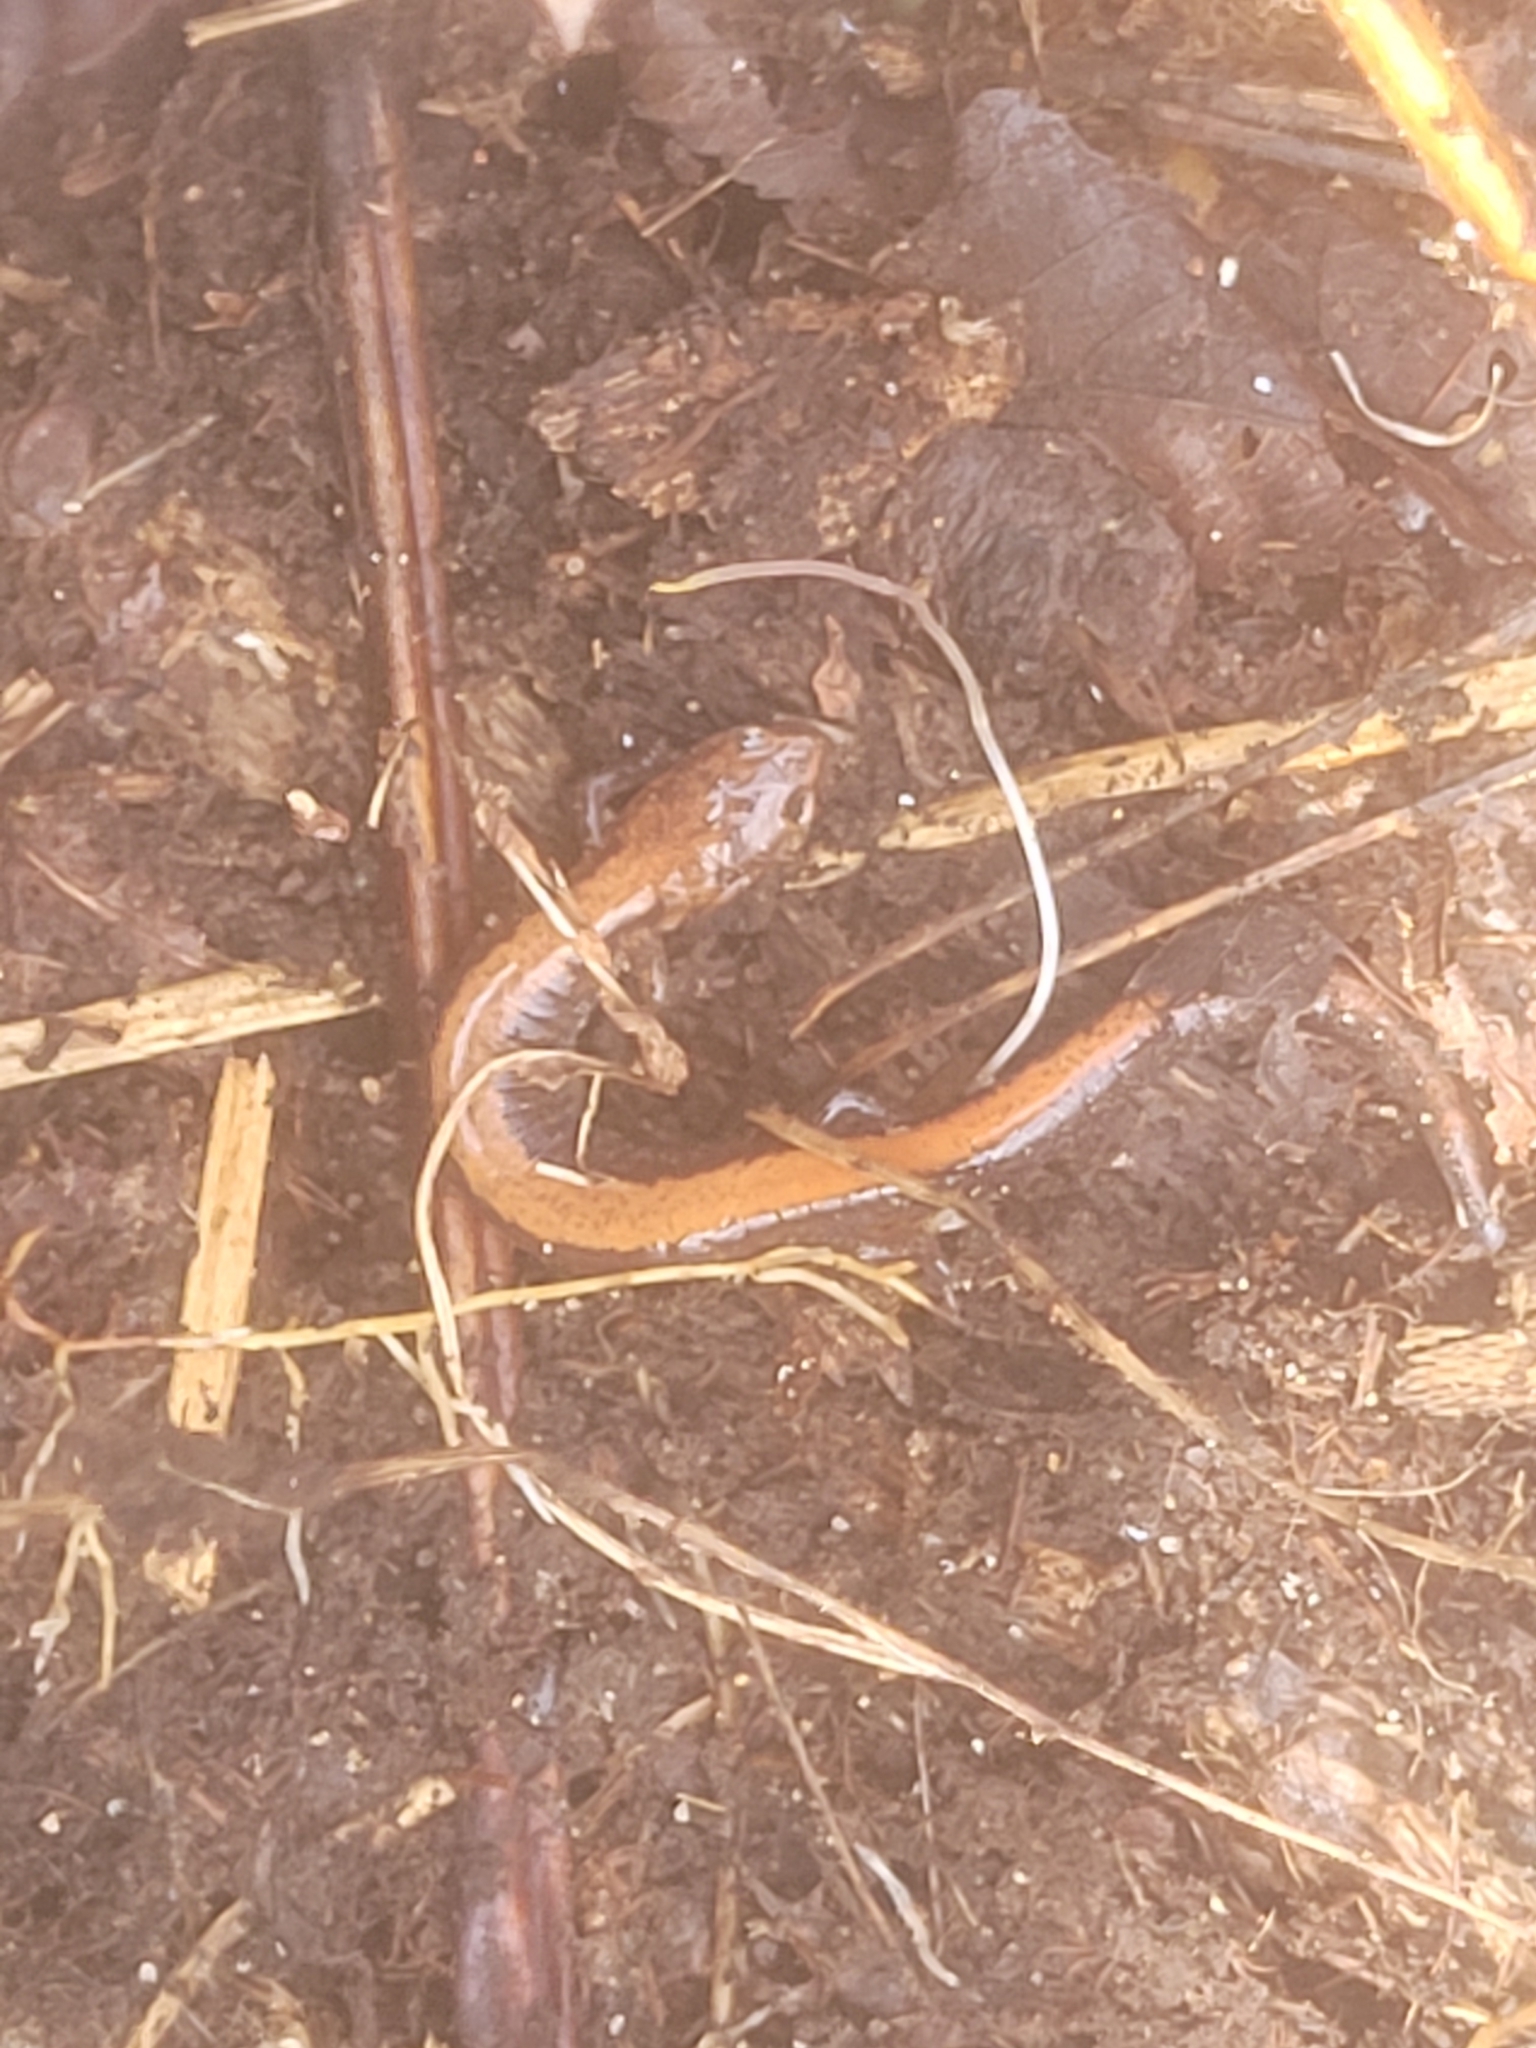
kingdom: Animalia
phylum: Chordata
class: Amphibia
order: Caudata
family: Plethodontidae
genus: Plethodon
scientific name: Plethodon cinereus
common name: Redback salamander
